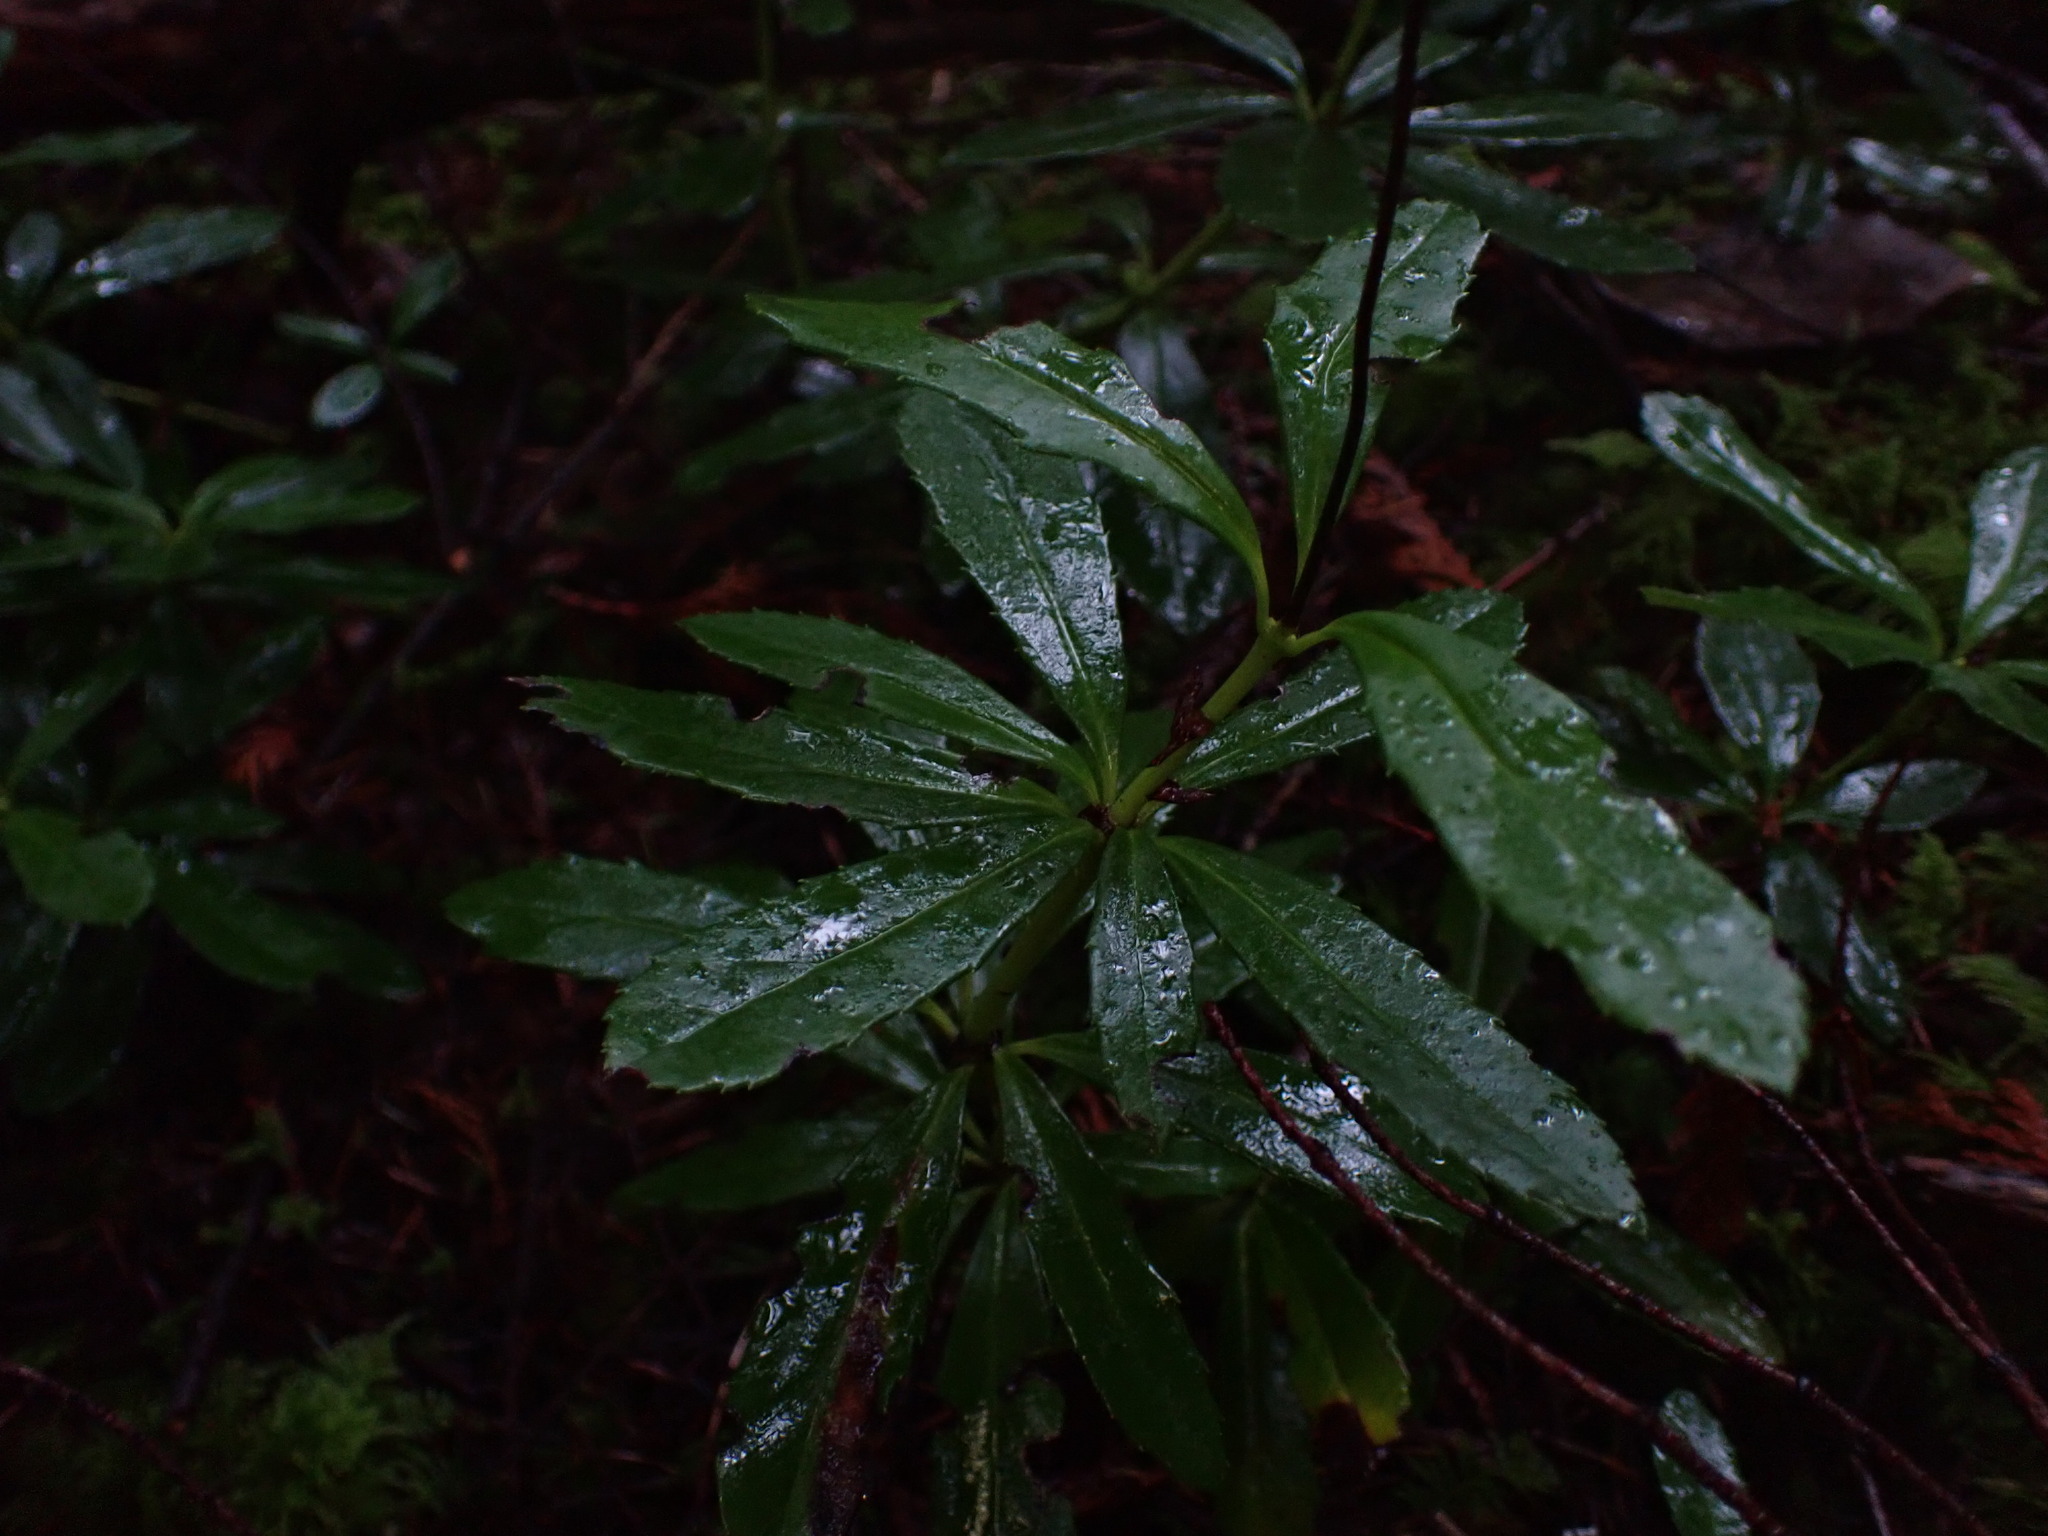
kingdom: Plantae
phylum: Tracheophyta
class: Magnoliopsida
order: Ericales
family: Ericaceae
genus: Chimaphila
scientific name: Chimaphila umbellata
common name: Pipsissewa
